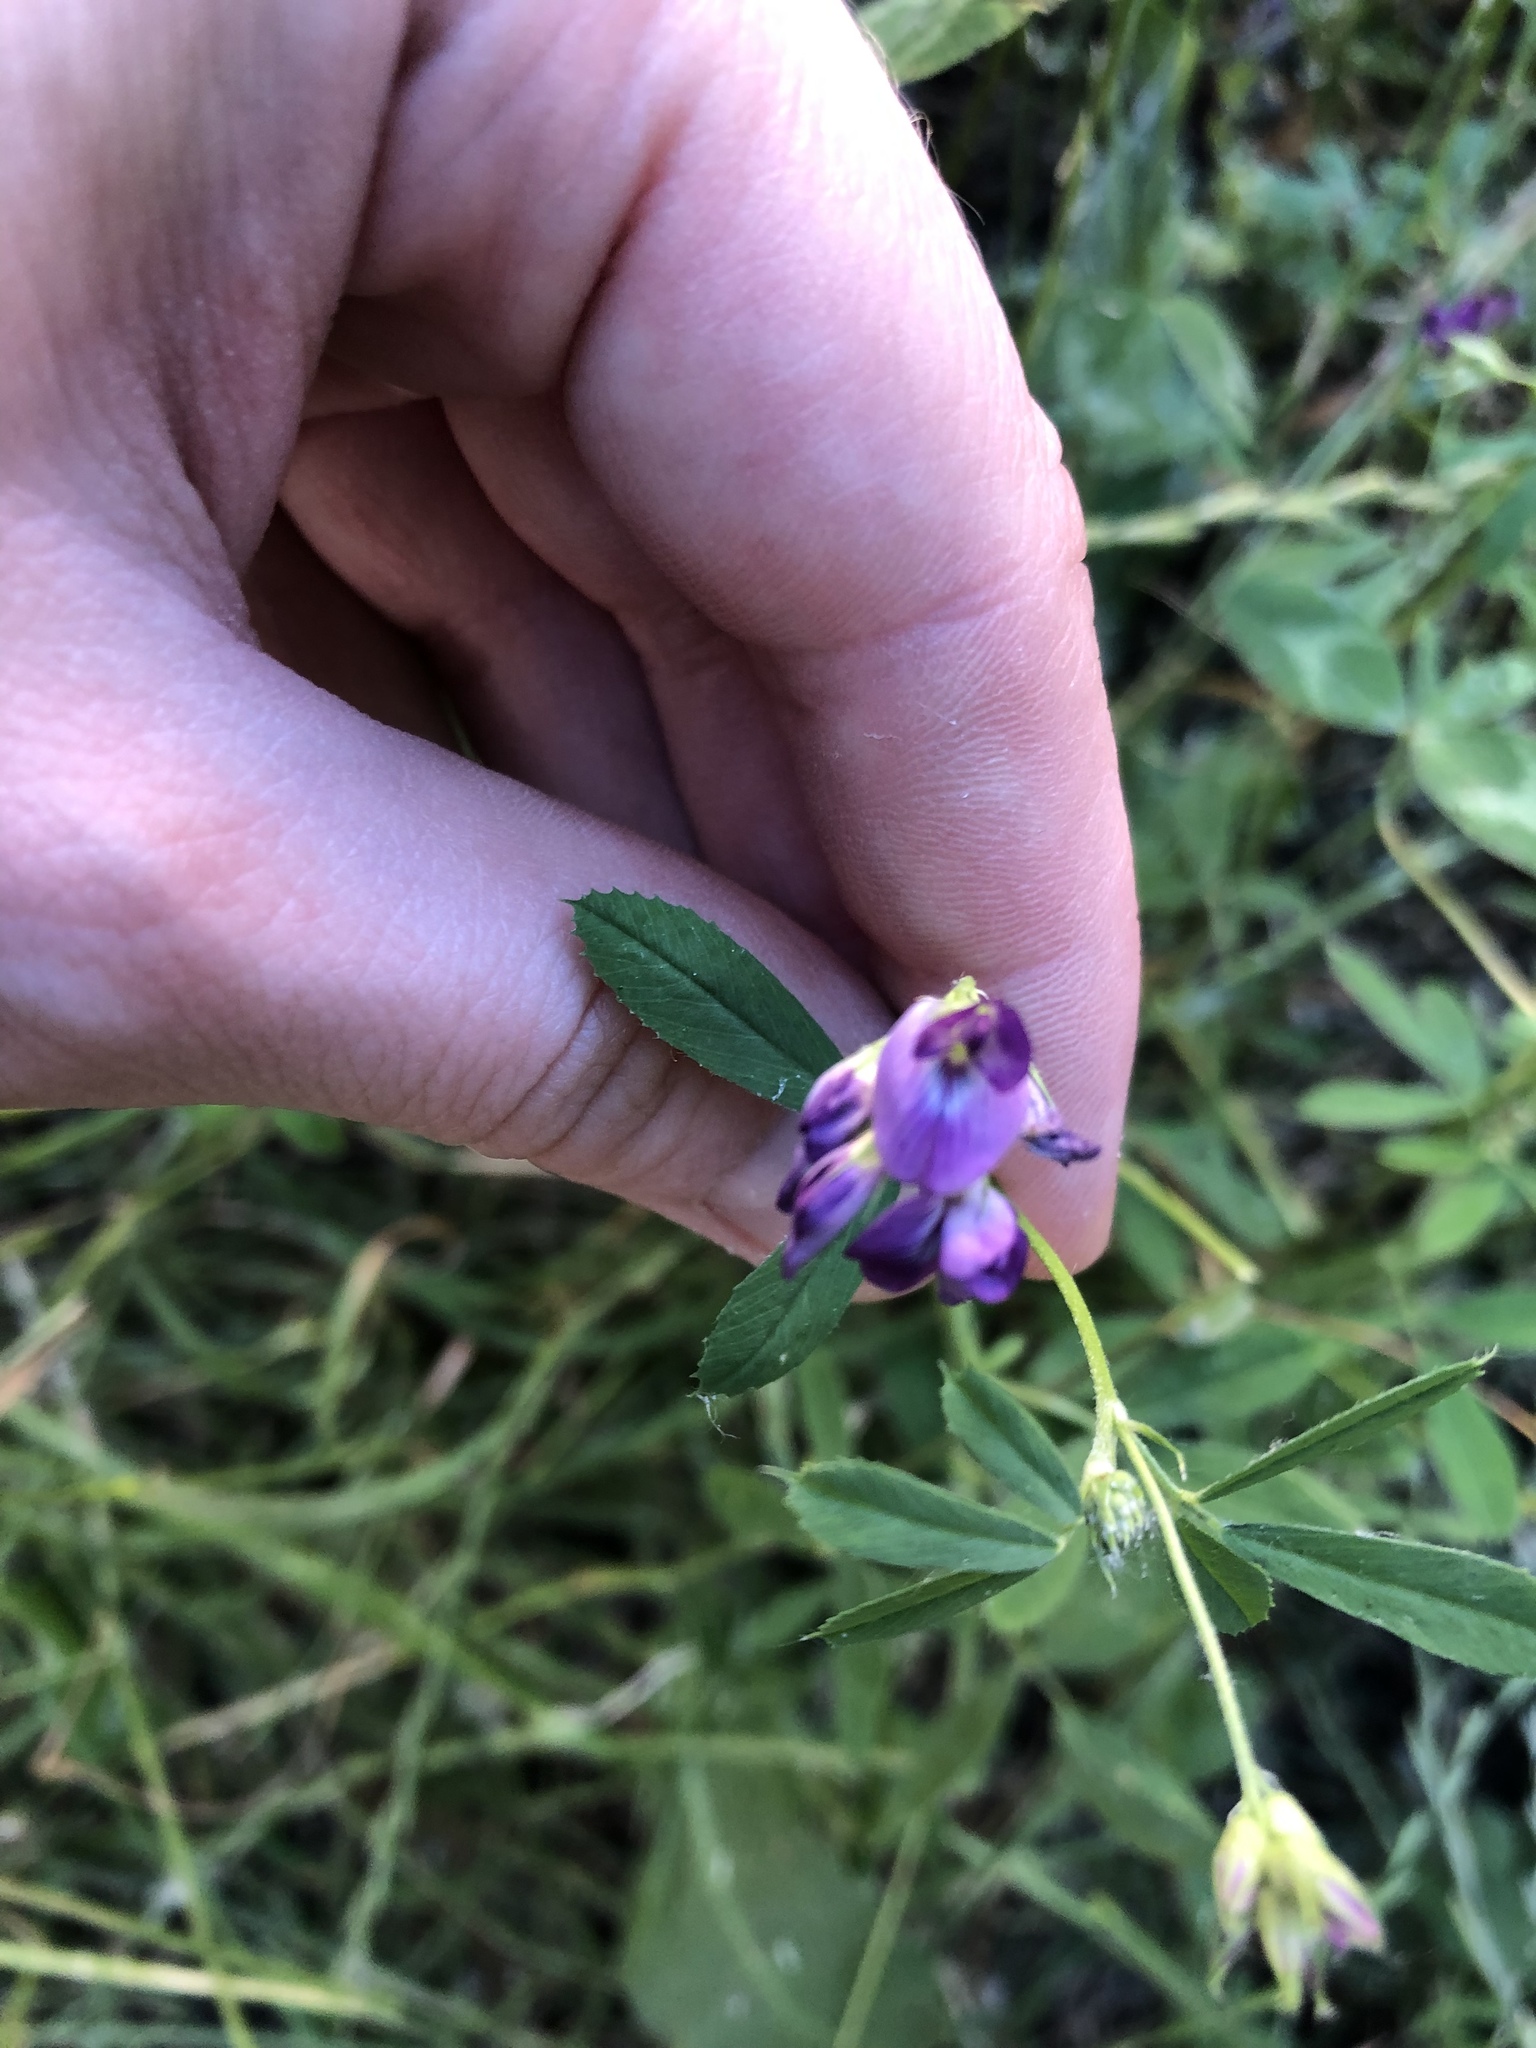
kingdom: Plantae
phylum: Tracheophyta
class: Magnoliopsida
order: Fabales
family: Fabaceae
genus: Medicago
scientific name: Medicago sativa
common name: Alfalfa
